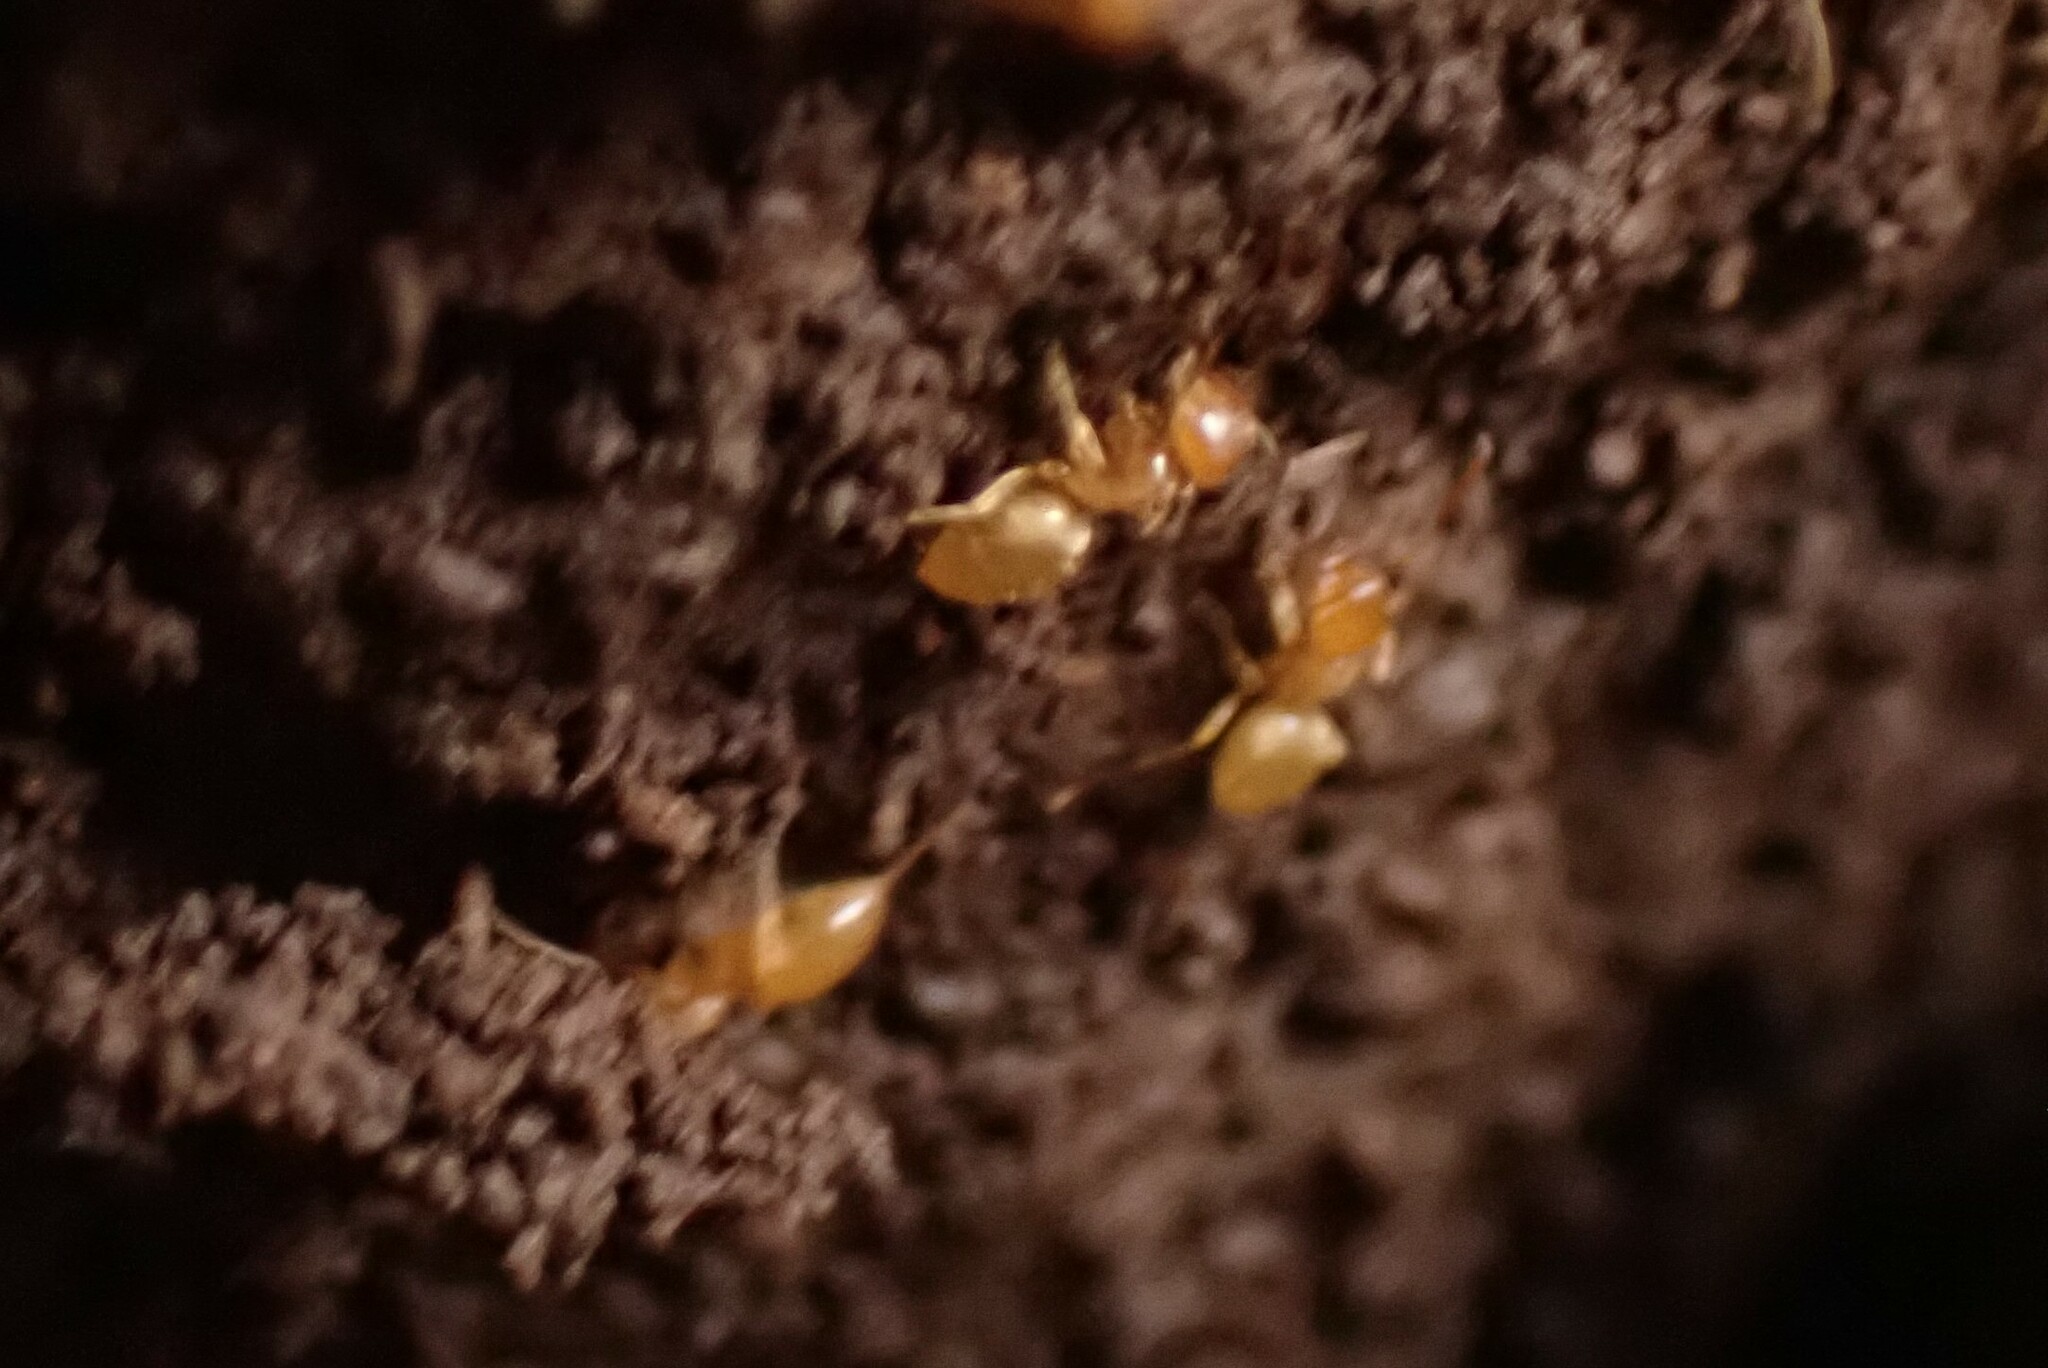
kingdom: Animalia
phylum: Arthropoda
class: Insecta
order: Hymenoptera
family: Formicidae
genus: Lasius
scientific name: Lasius
